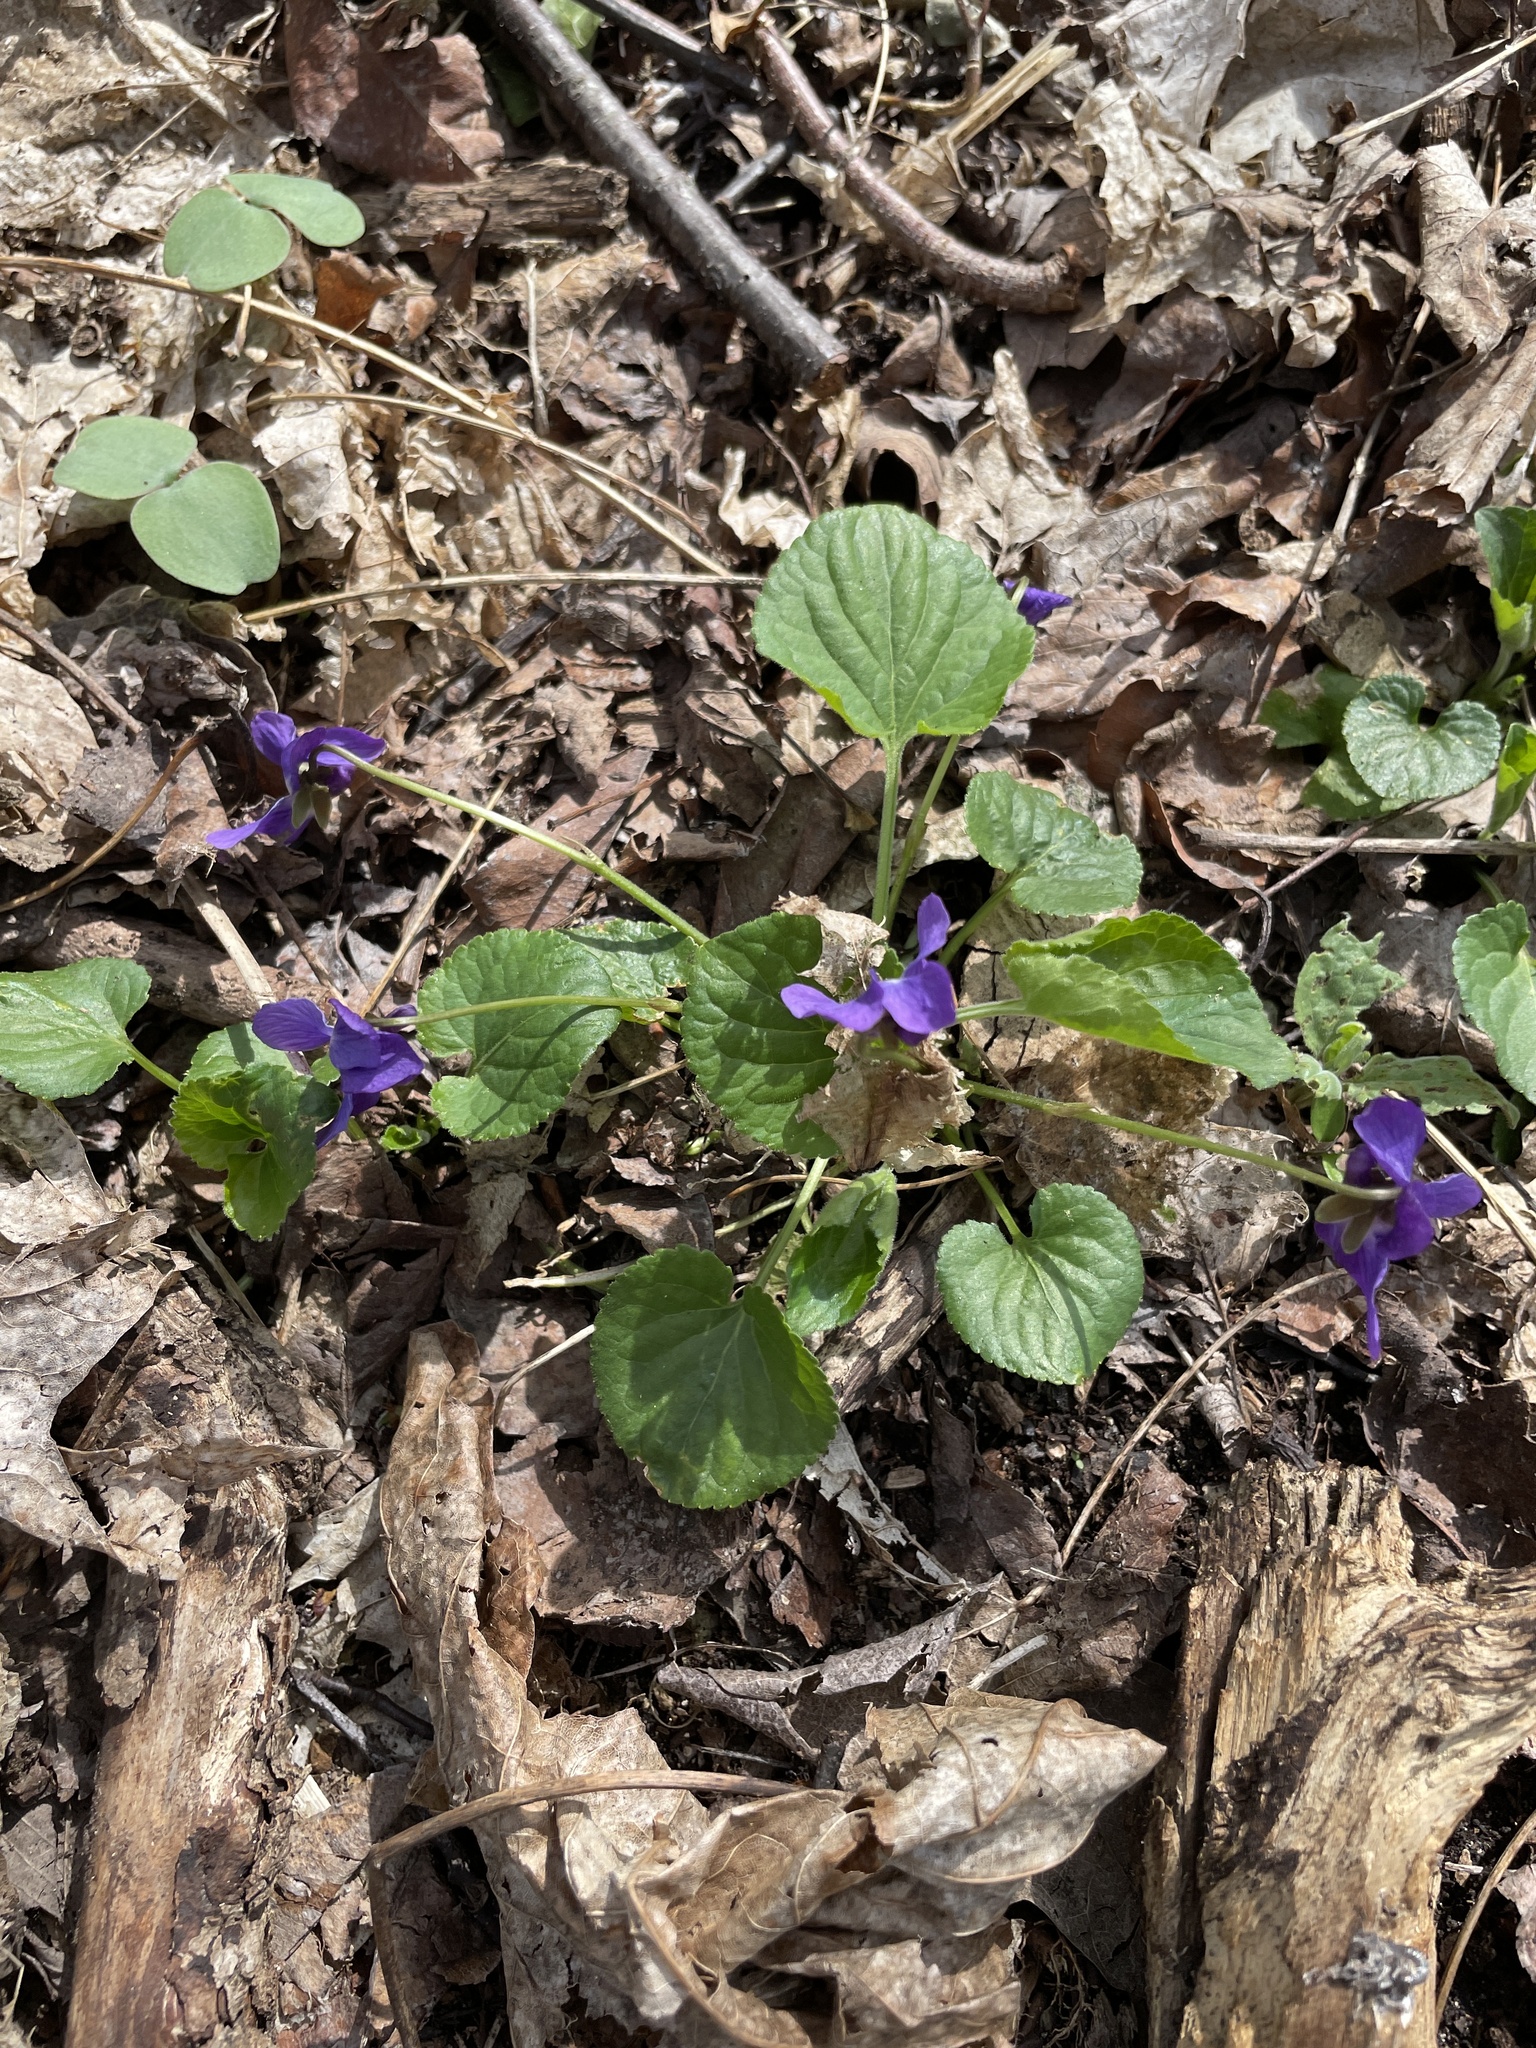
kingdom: Plantae
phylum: Tracheophyta
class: Magnoliopsida
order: Malpighiales
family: Violaceae
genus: Viola
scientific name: Viola sororia
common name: Dooryard violet
